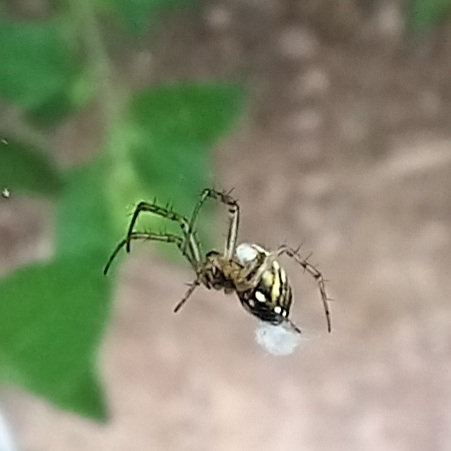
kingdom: Animalia
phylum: Arthropoda
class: Arachnida
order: Araneae
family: Araneidae
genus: Mangora
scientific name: Mangora acalypha
